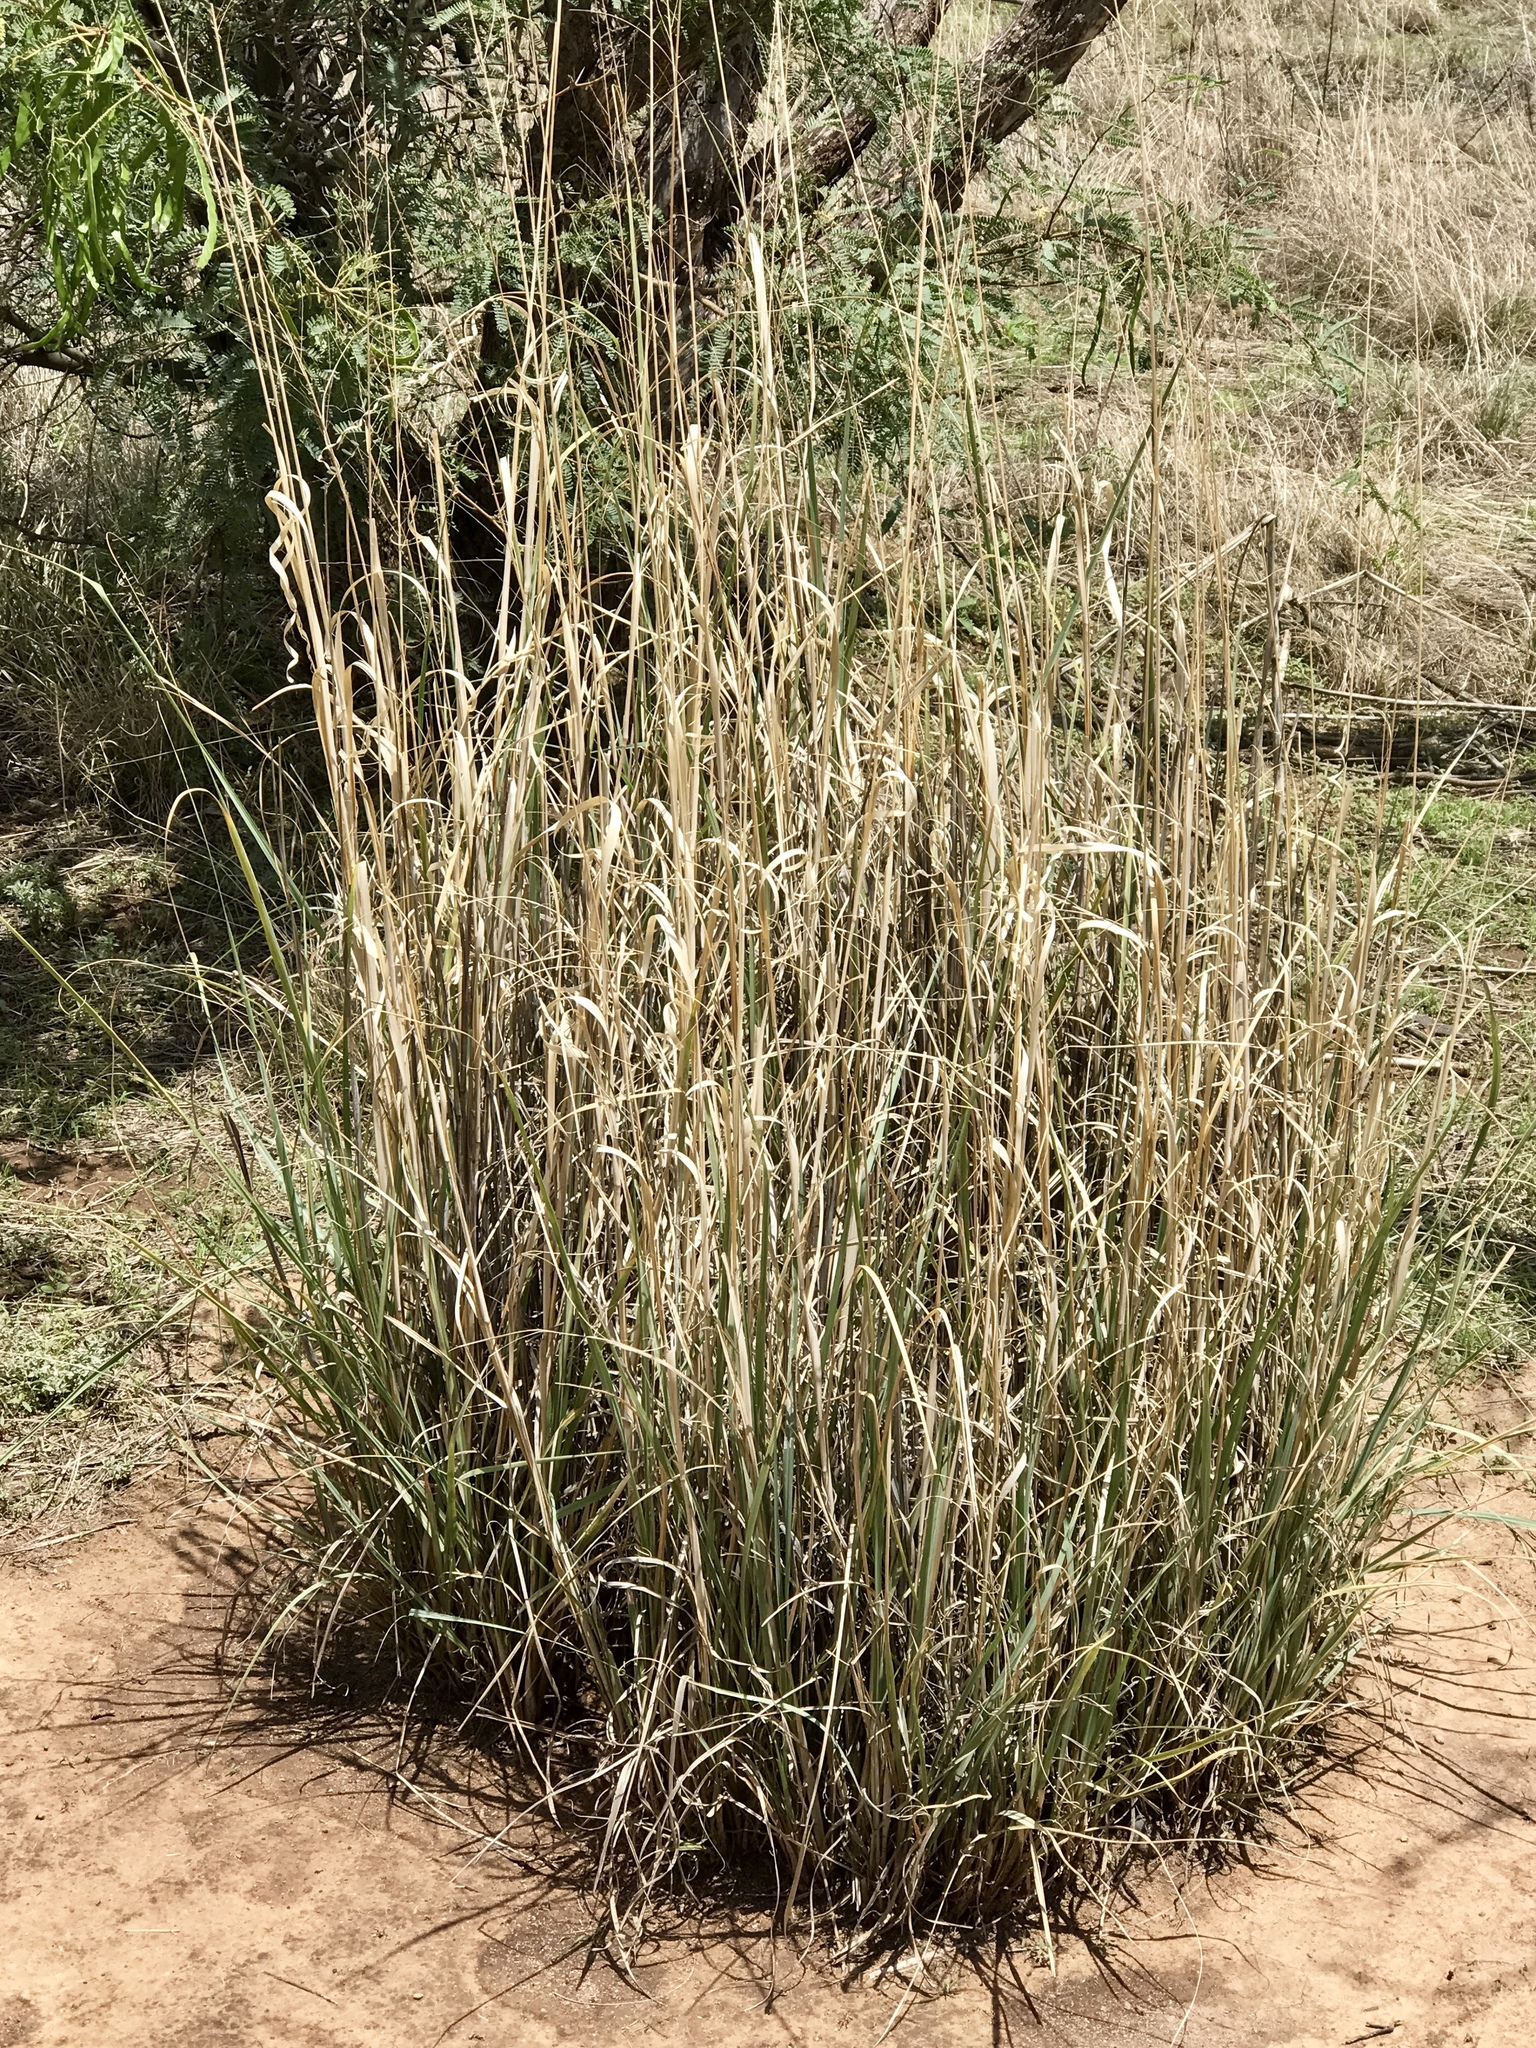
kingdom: Plantae
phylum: Tracheophyta
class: Liliopsida
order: Poales
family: Poaceae
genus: Sporobolus
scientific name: Sporobolus wrightii
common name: Big alkali sacaton
